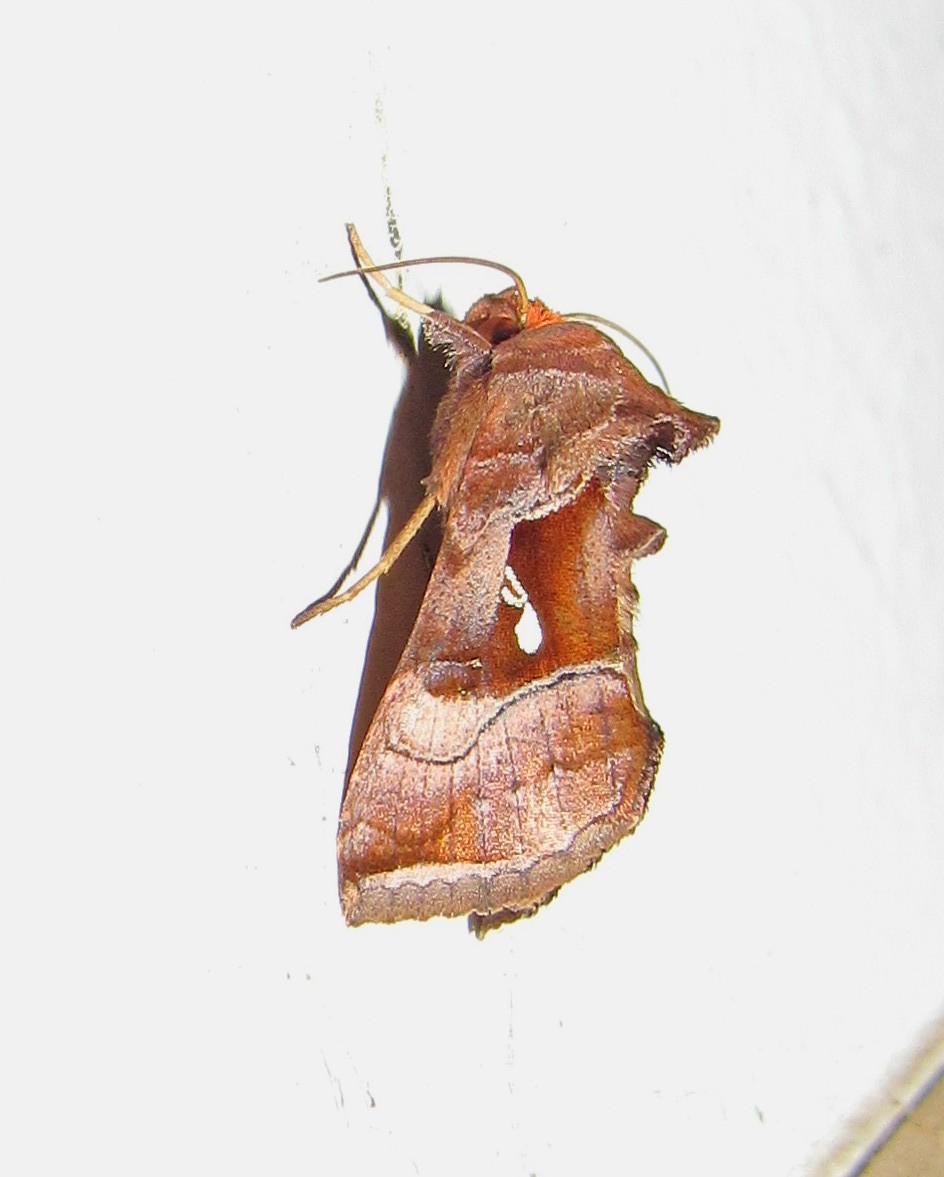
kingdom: Animalia
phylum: Arthropoda
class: Insecta
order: Lepidoptera
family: Noctuidae
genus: Enigmogramma
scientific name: Enigmogramma admonens
